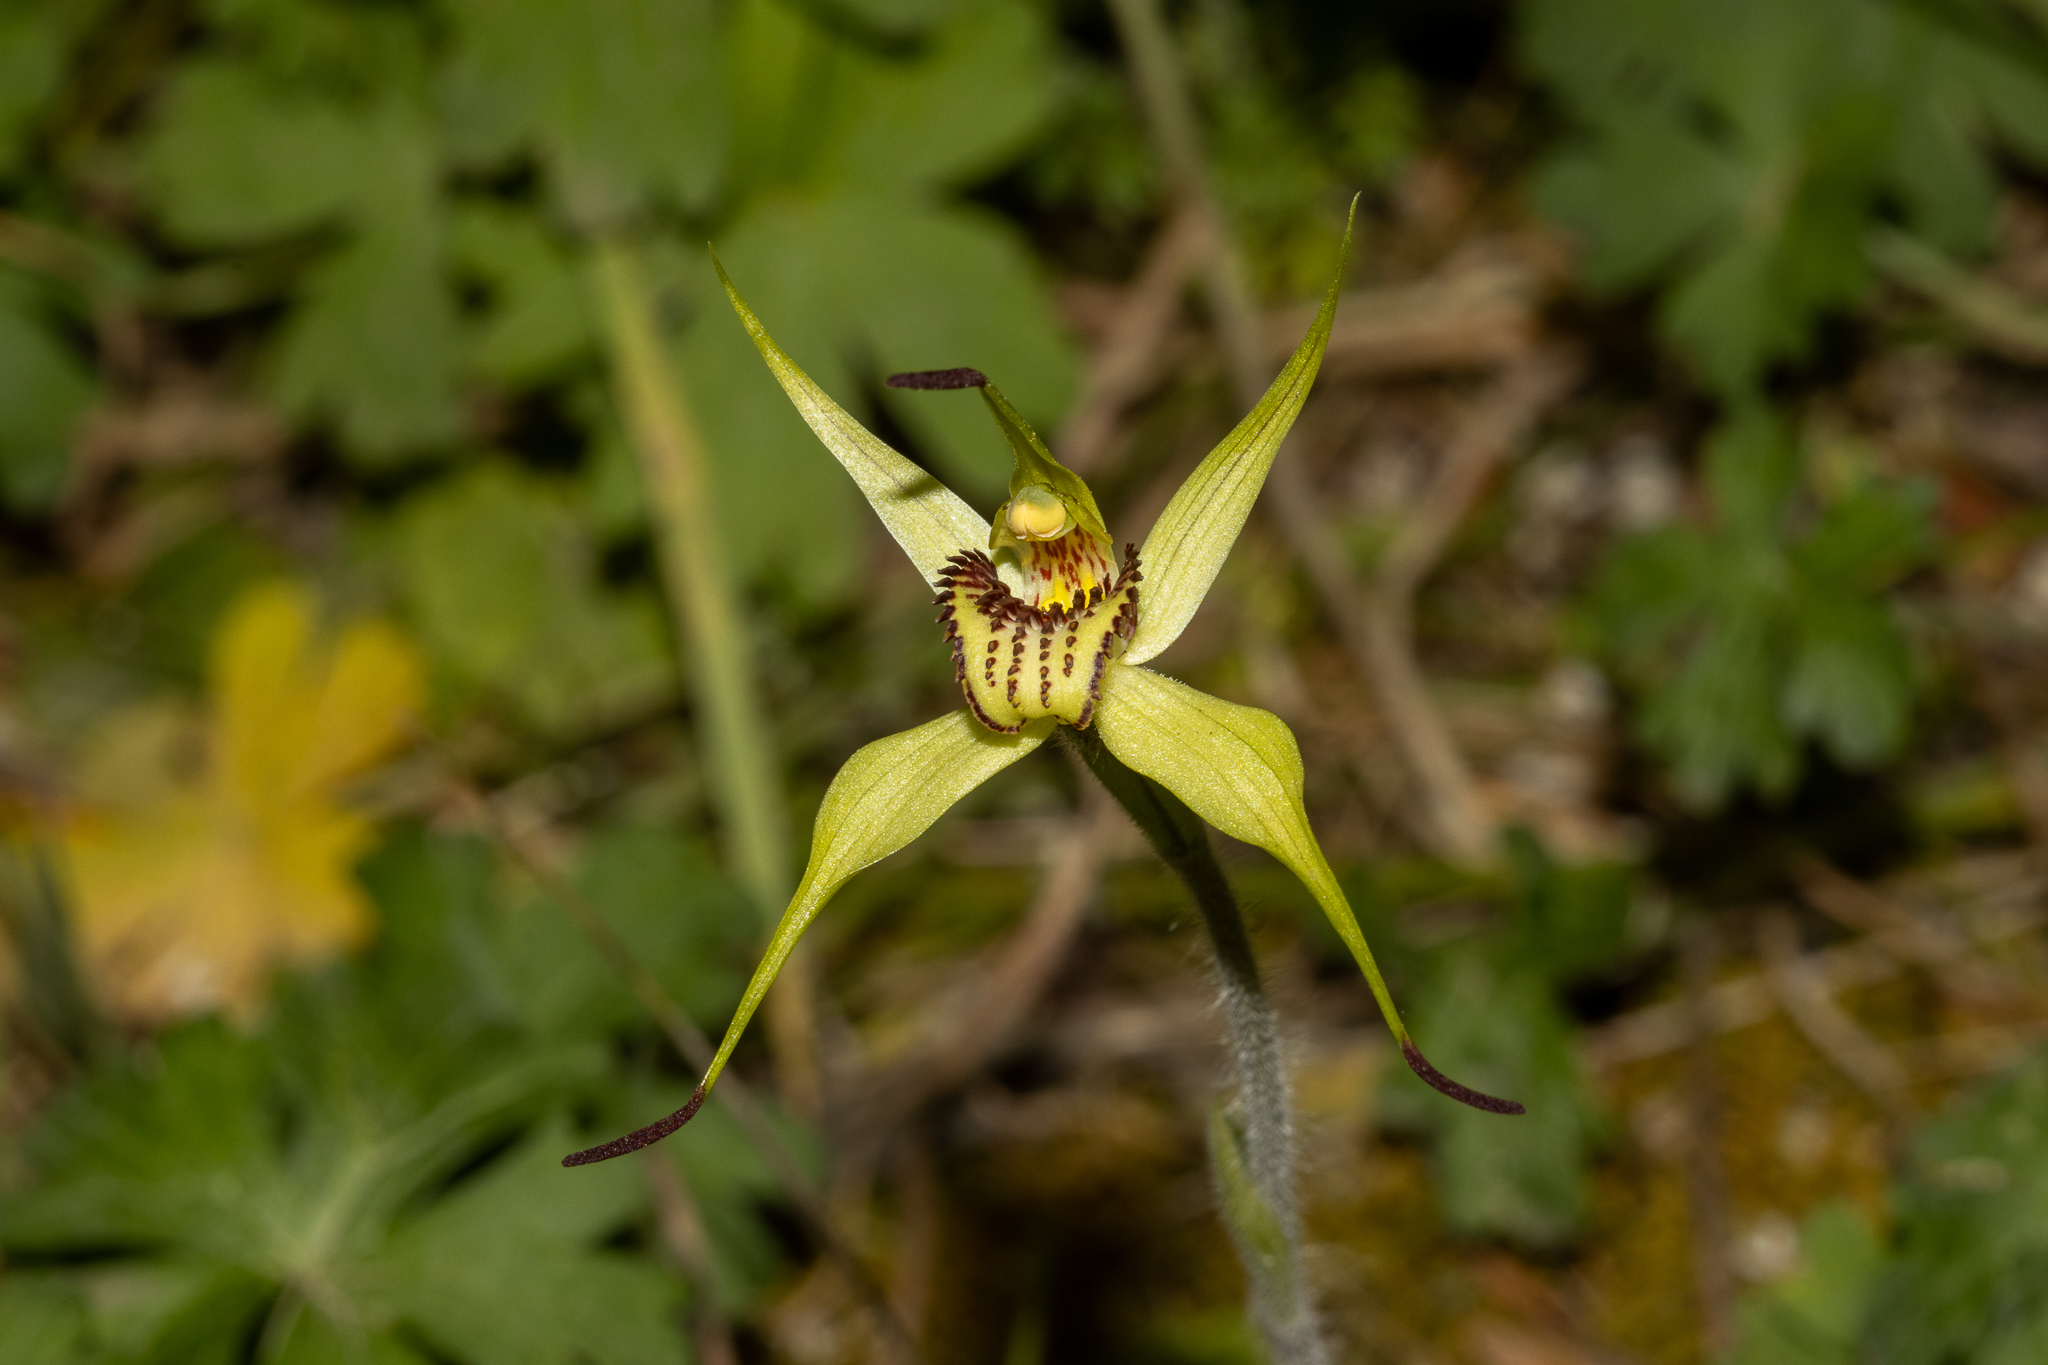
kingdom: Plantae
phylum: Tracheophyta
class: Liliopsida
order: Asparagales
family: Orchidaceae
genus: Caladenia
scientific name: Caladenia richardsiorum
